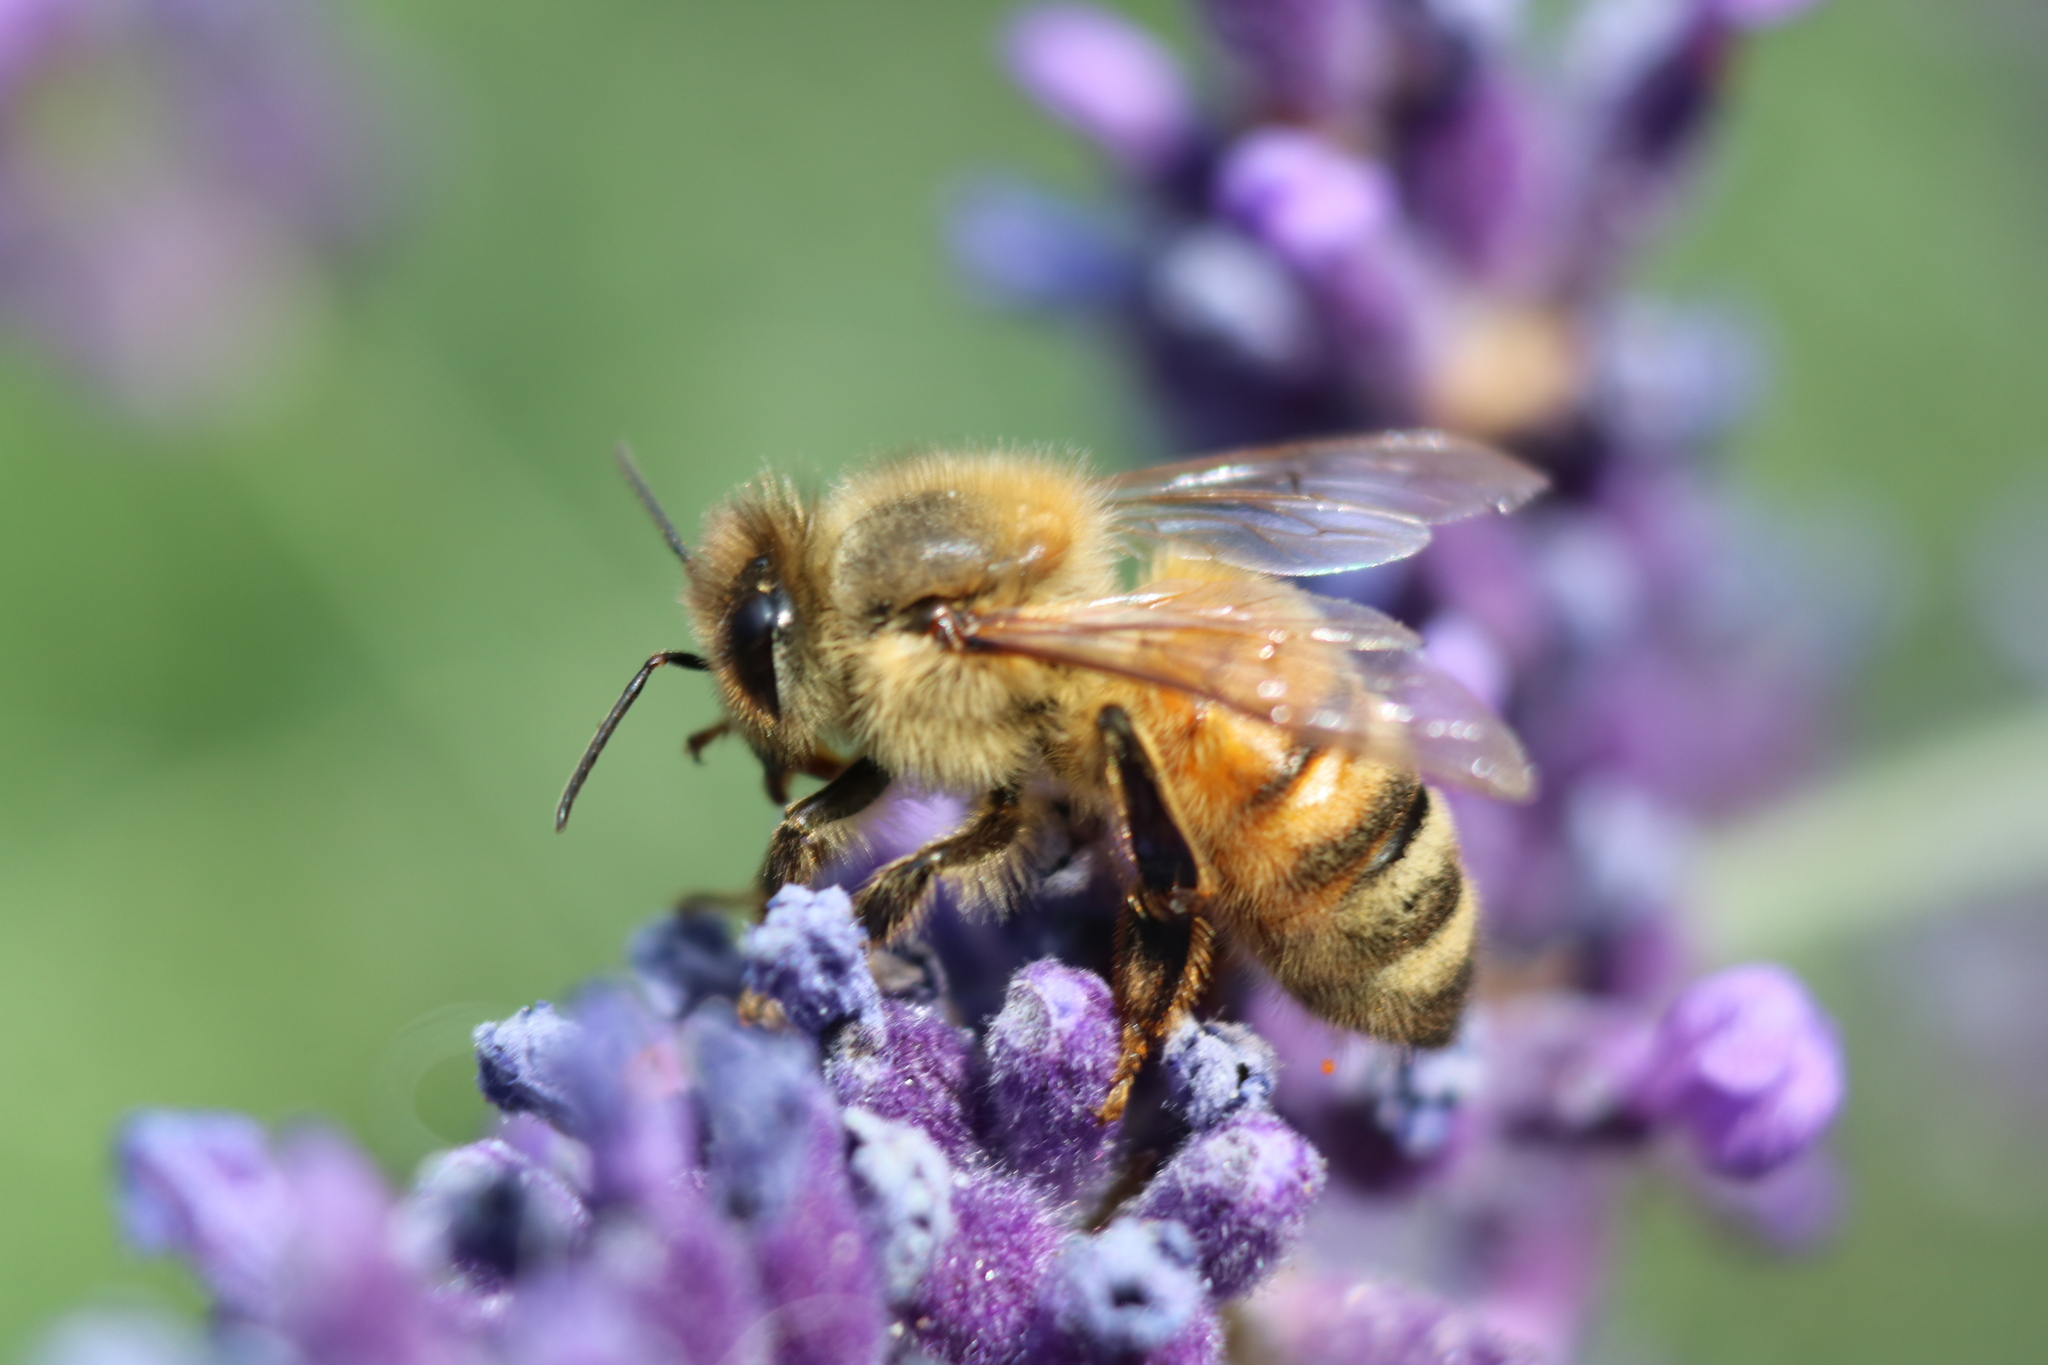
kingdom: Animalia
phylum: Arthropoda
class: Insecta
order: Hymenoptera
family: Apidae
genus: Apis
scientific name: Apis mellifera
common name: Honey bee
